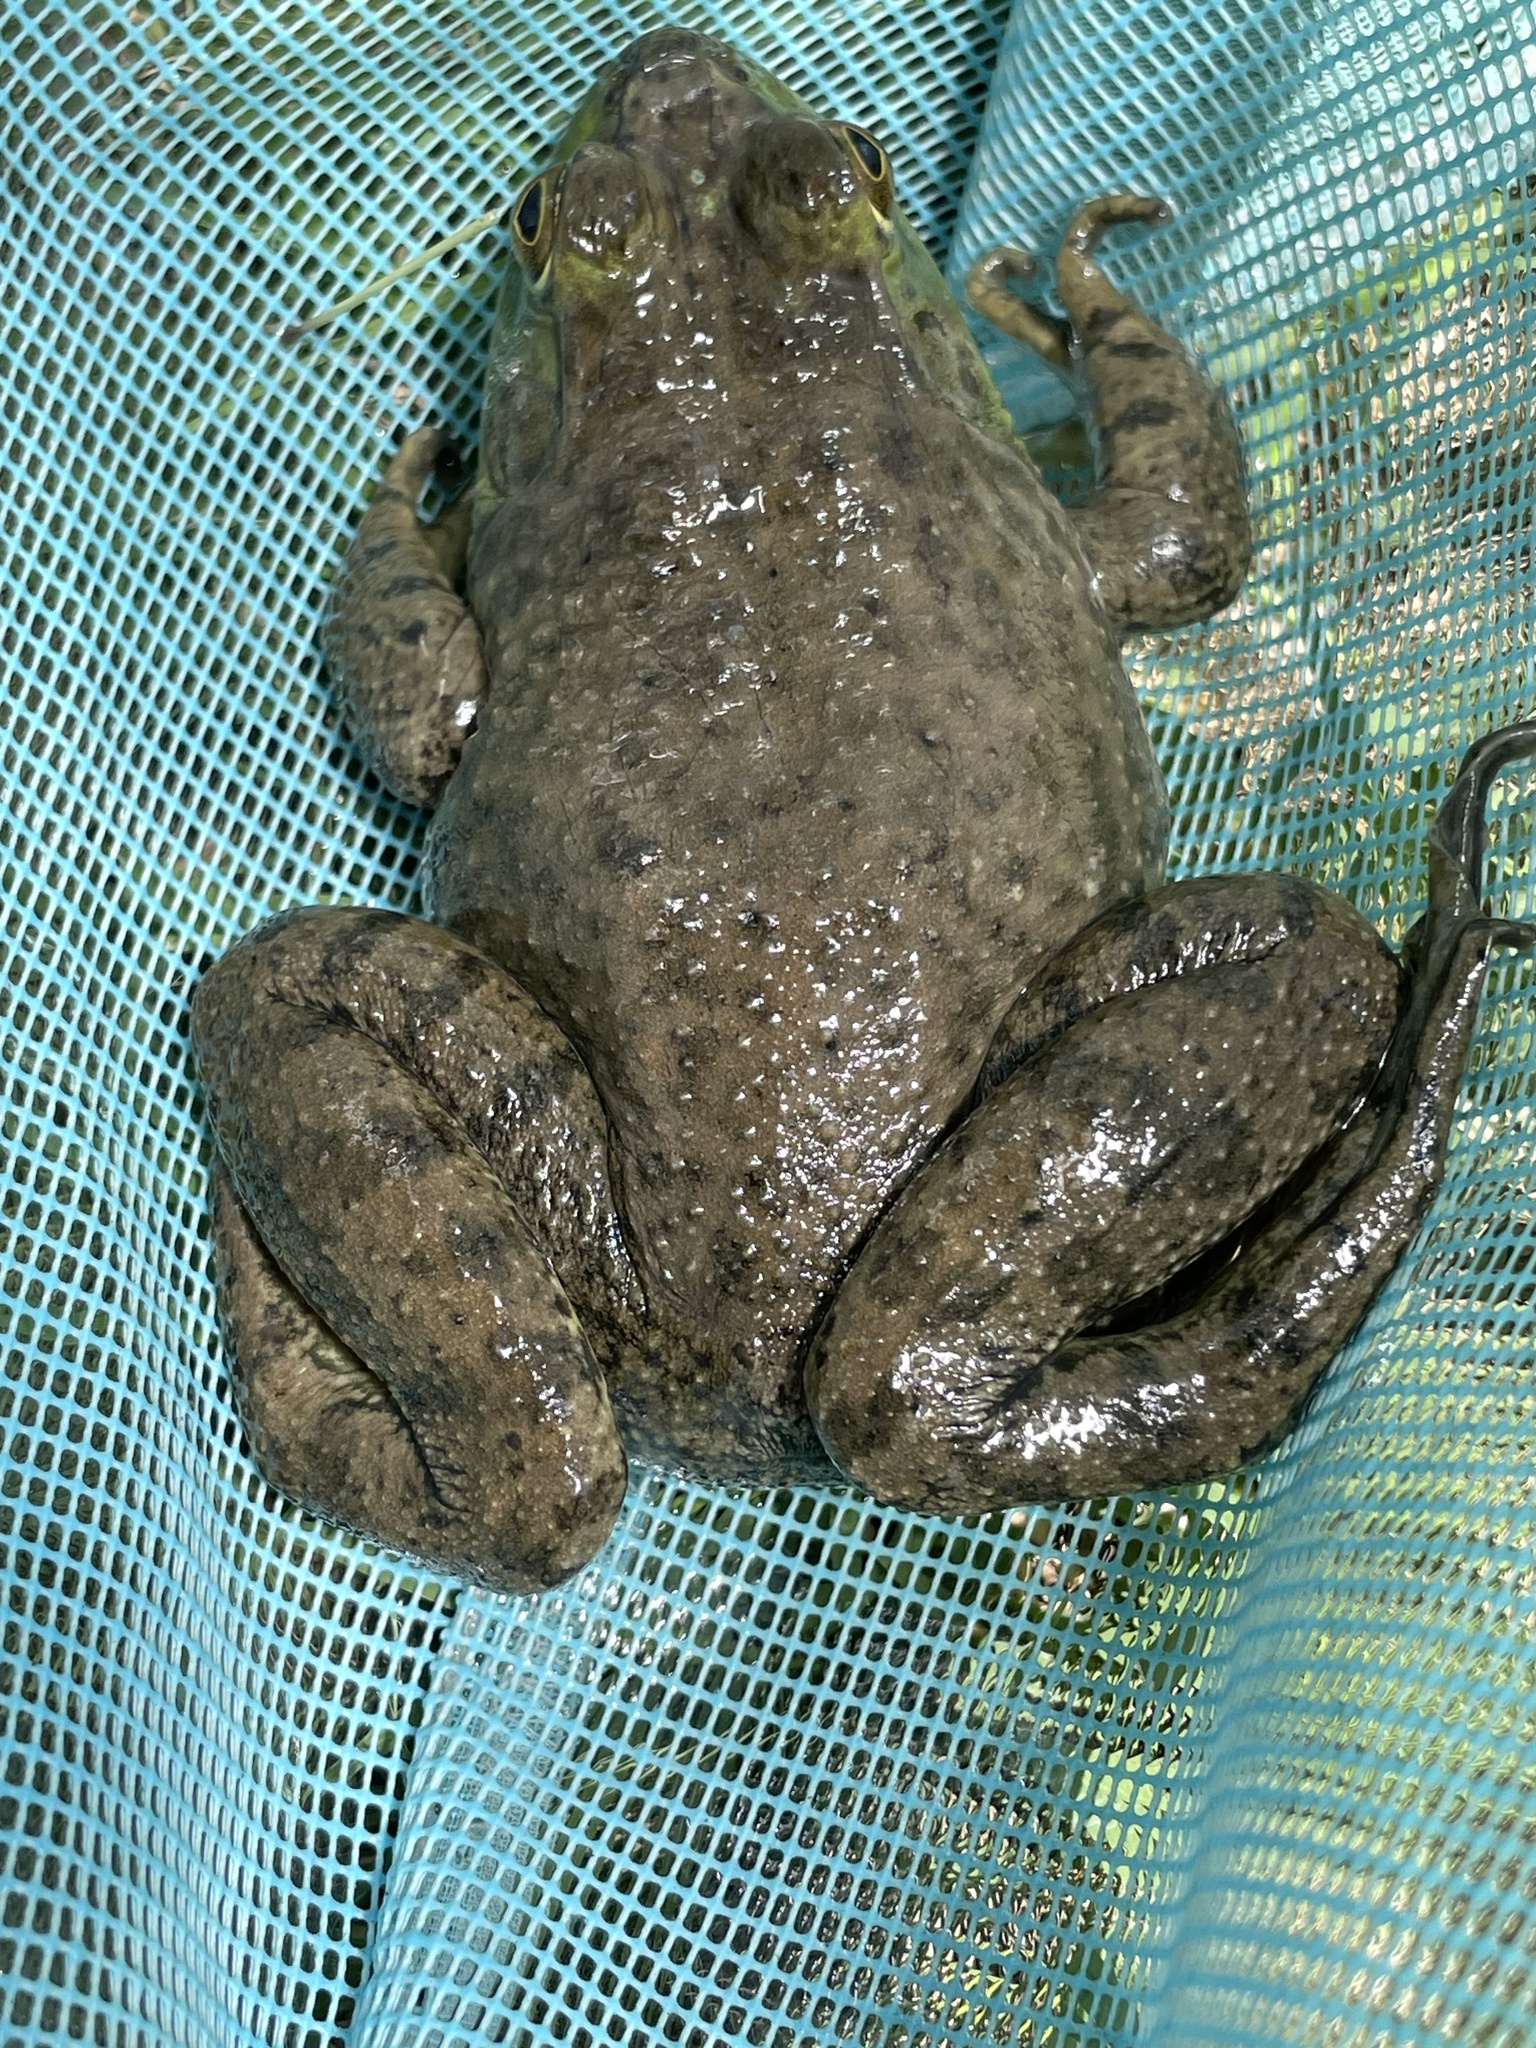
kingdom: Animalia
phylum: Chordata
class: Amphibia
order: Anura
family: Ranidae
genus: Lithobates
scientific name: Lithobates catesbeianus
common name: American bullfrog
